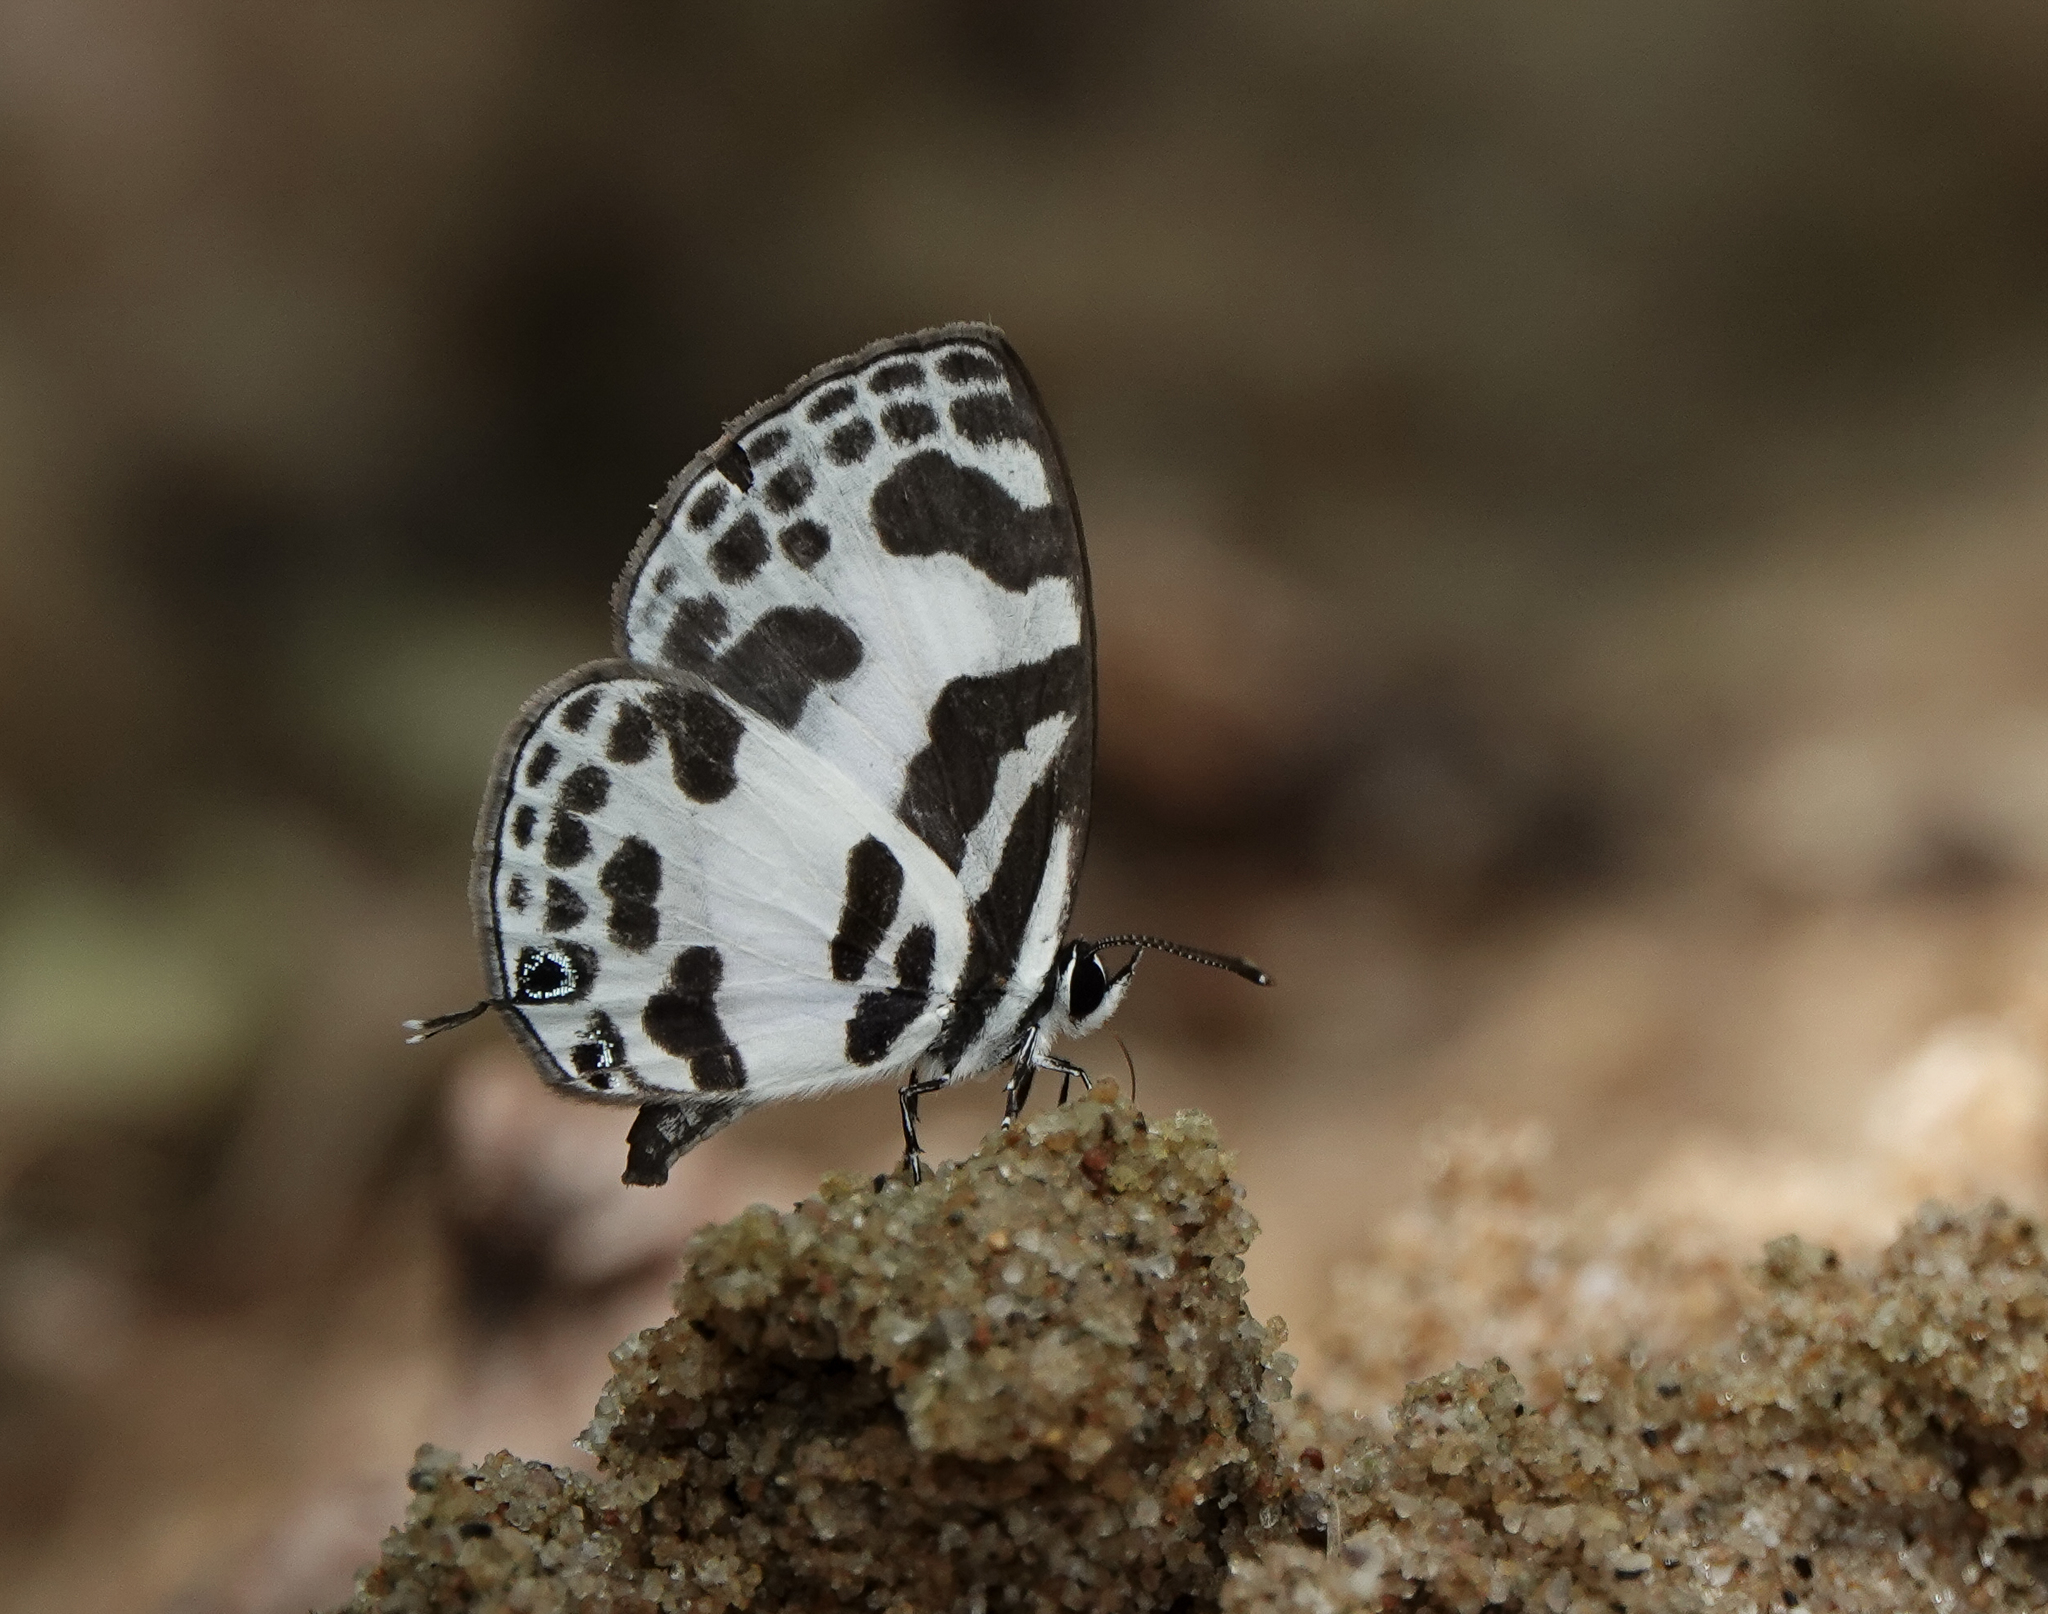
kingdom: Animalia
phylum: Arthropoda
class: Insecta
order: Lepidoptera
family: Lycaenidae
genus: Discolampa
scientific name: Discolampa ethion
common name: Banded blue pierrot
